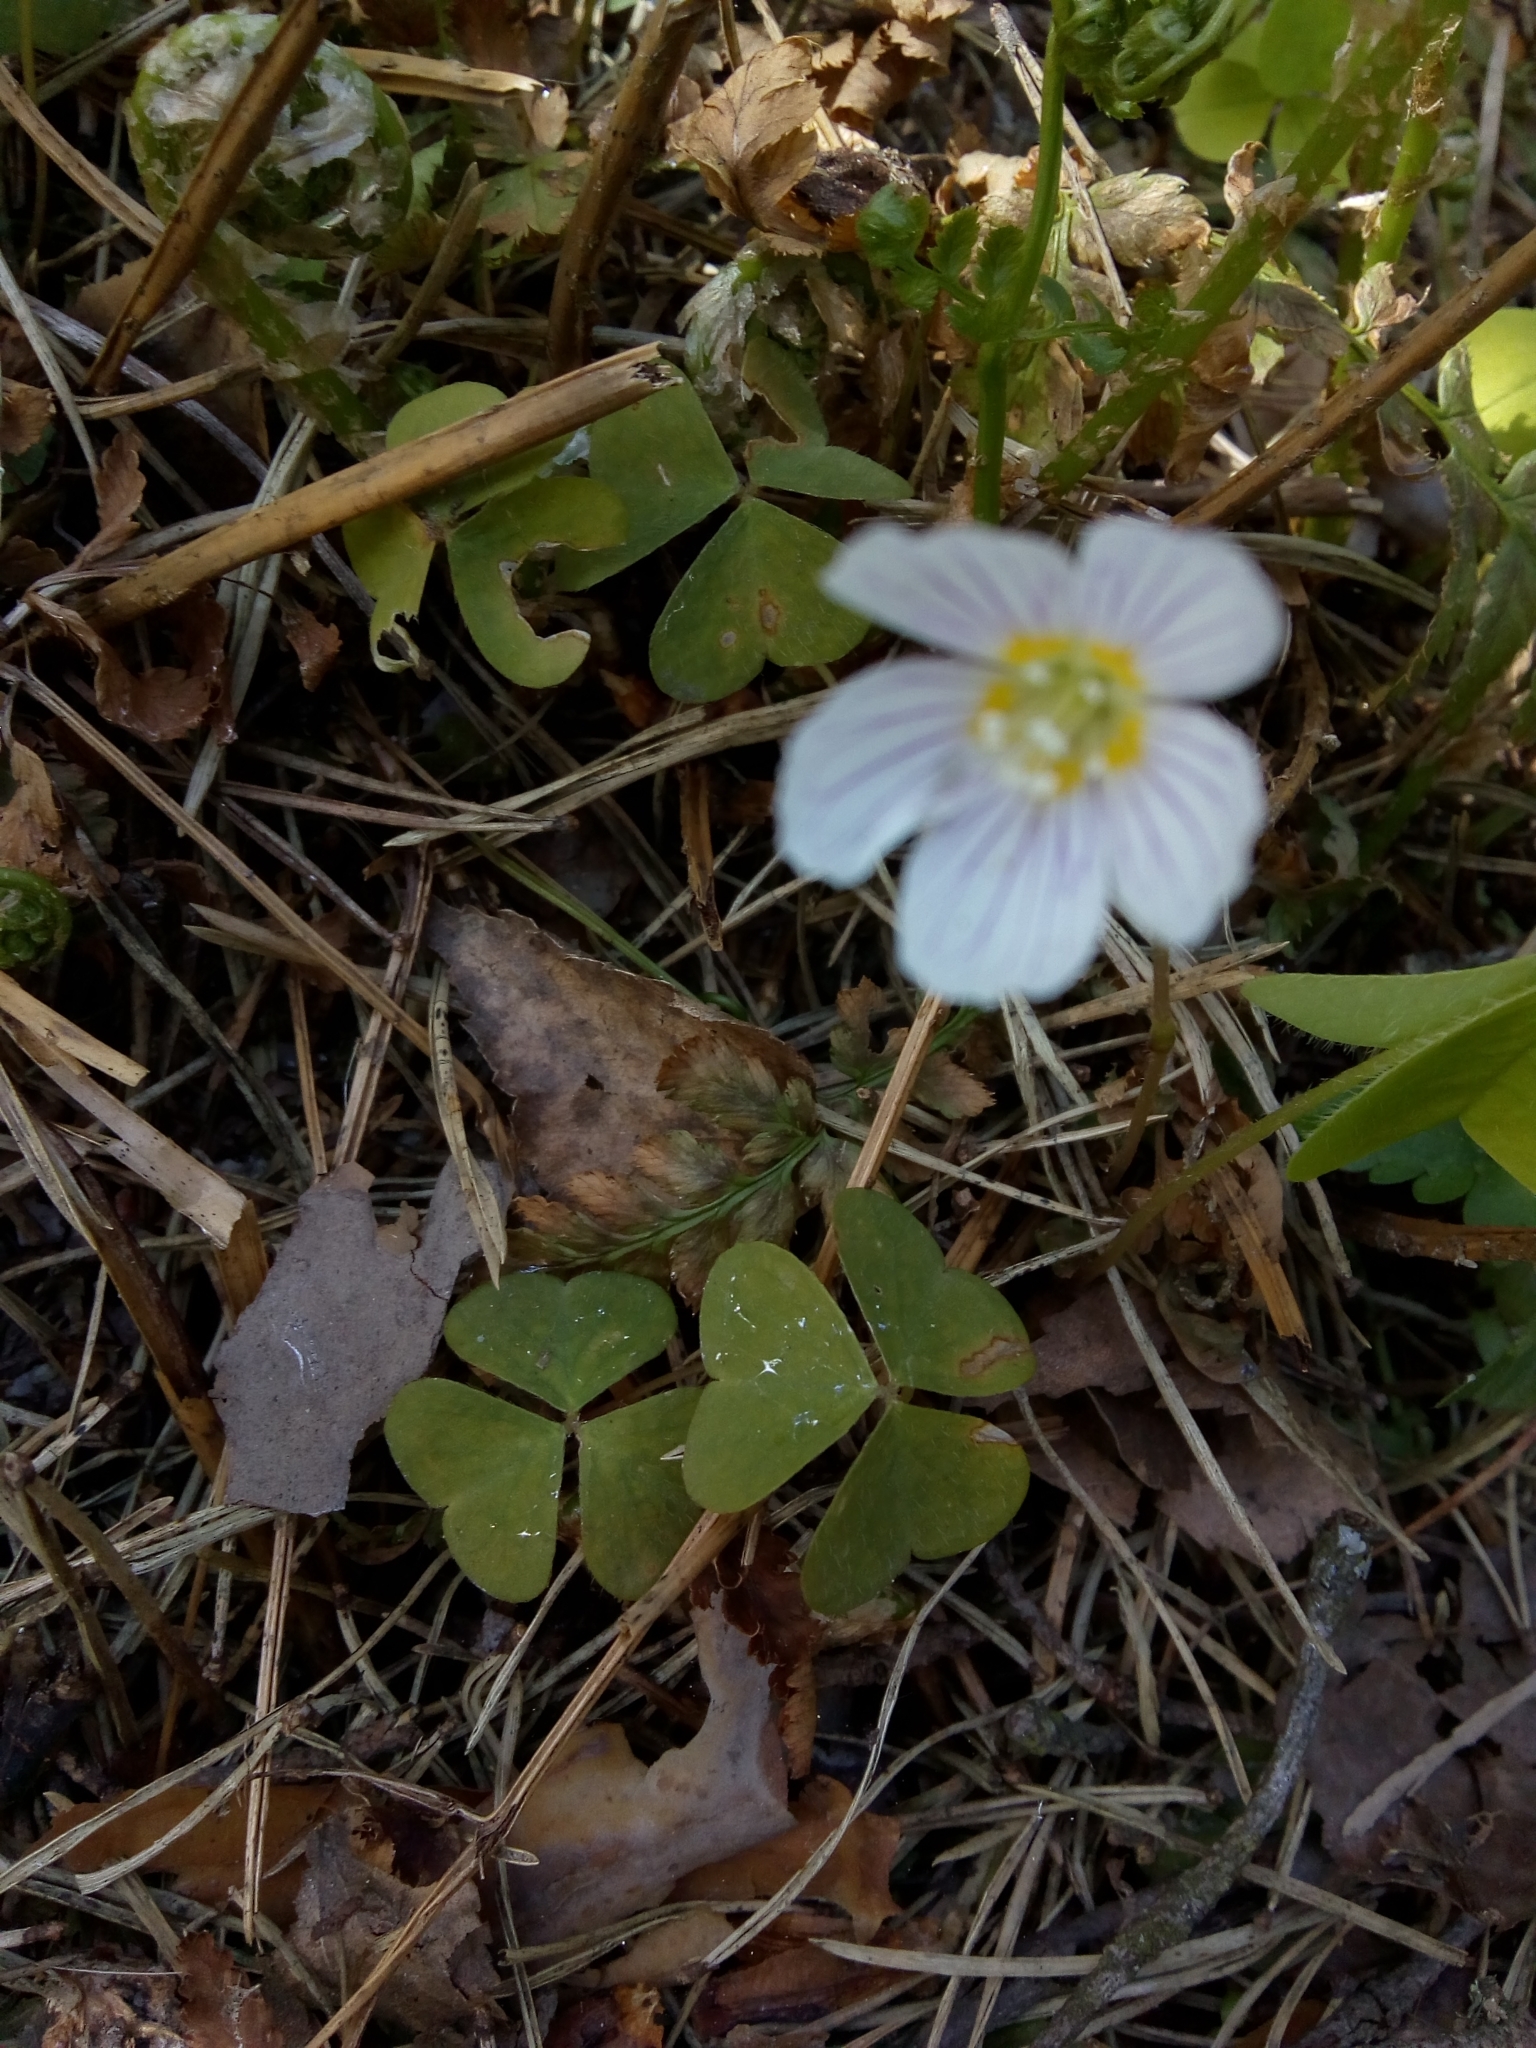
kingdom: Plantae
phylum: Tracheophyta
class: Magnoliopsida
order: Oxalidales
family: Oxalidaceae
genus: Oxalis
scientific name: Oxalis acetosella
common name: Wood-sorrel
